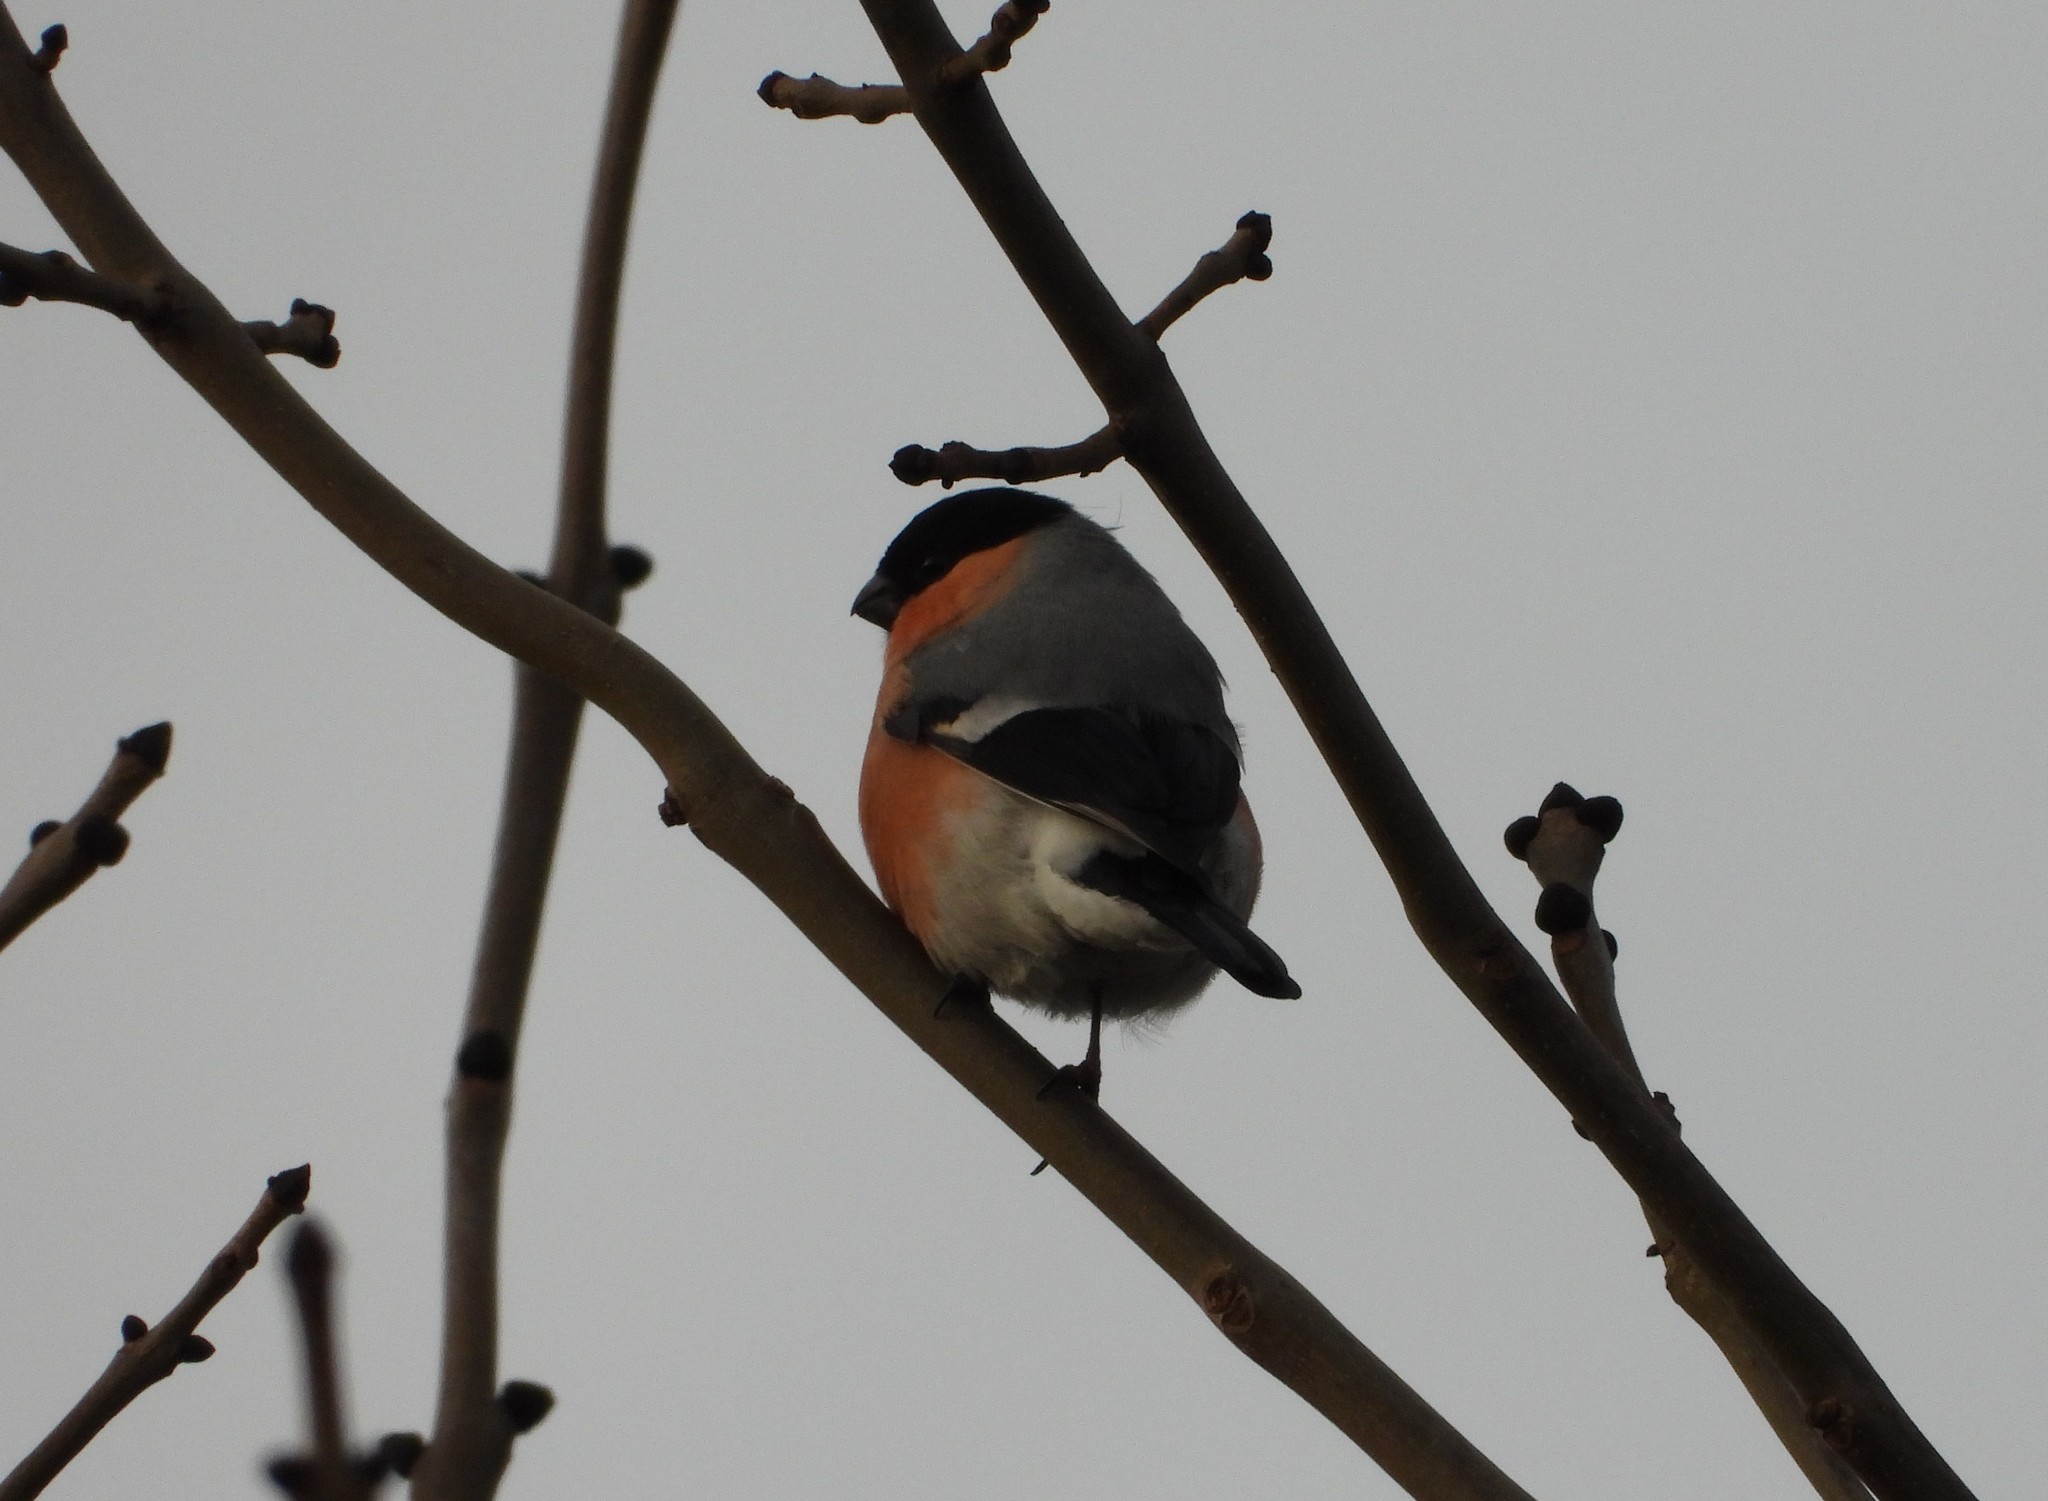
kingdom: Animalia
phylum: Chordata
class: Aves
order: Passeriformes
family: Fringillidae
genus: Pyrrhula
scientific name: Pyrrhula pyrrhula
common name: Eurasian bullfinch
